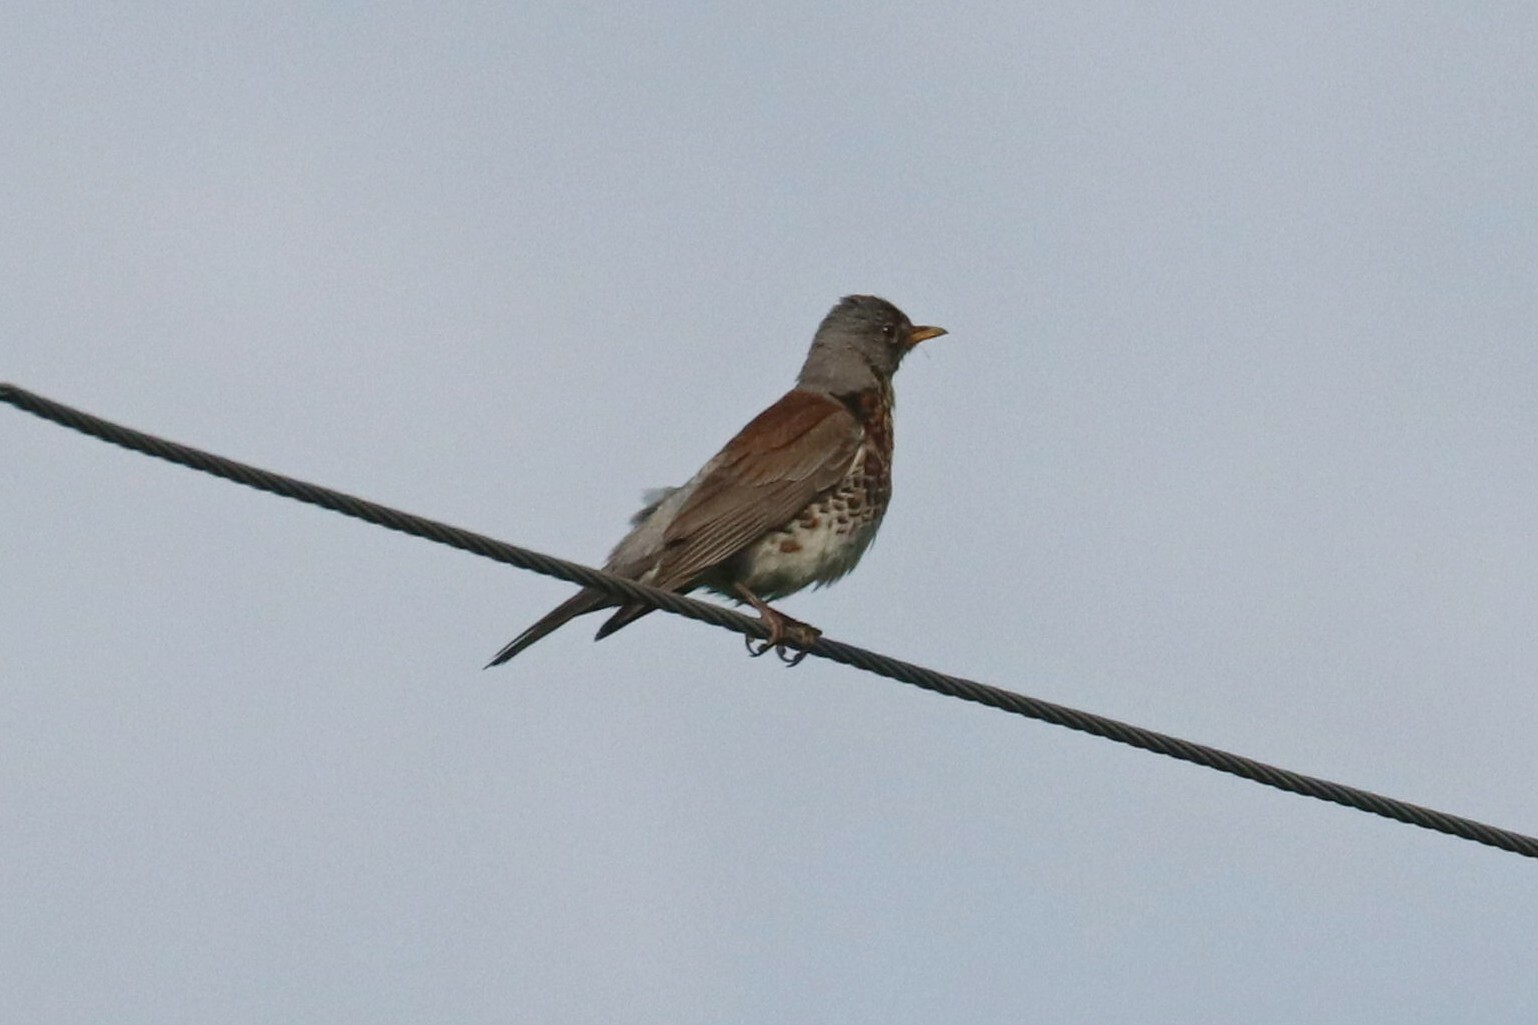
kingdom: Animalia
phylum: Chordata
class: Aves
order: Passeriformes
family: Turdidae
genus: Turdus
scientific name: Turdus pilaris
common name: Fieldfare
